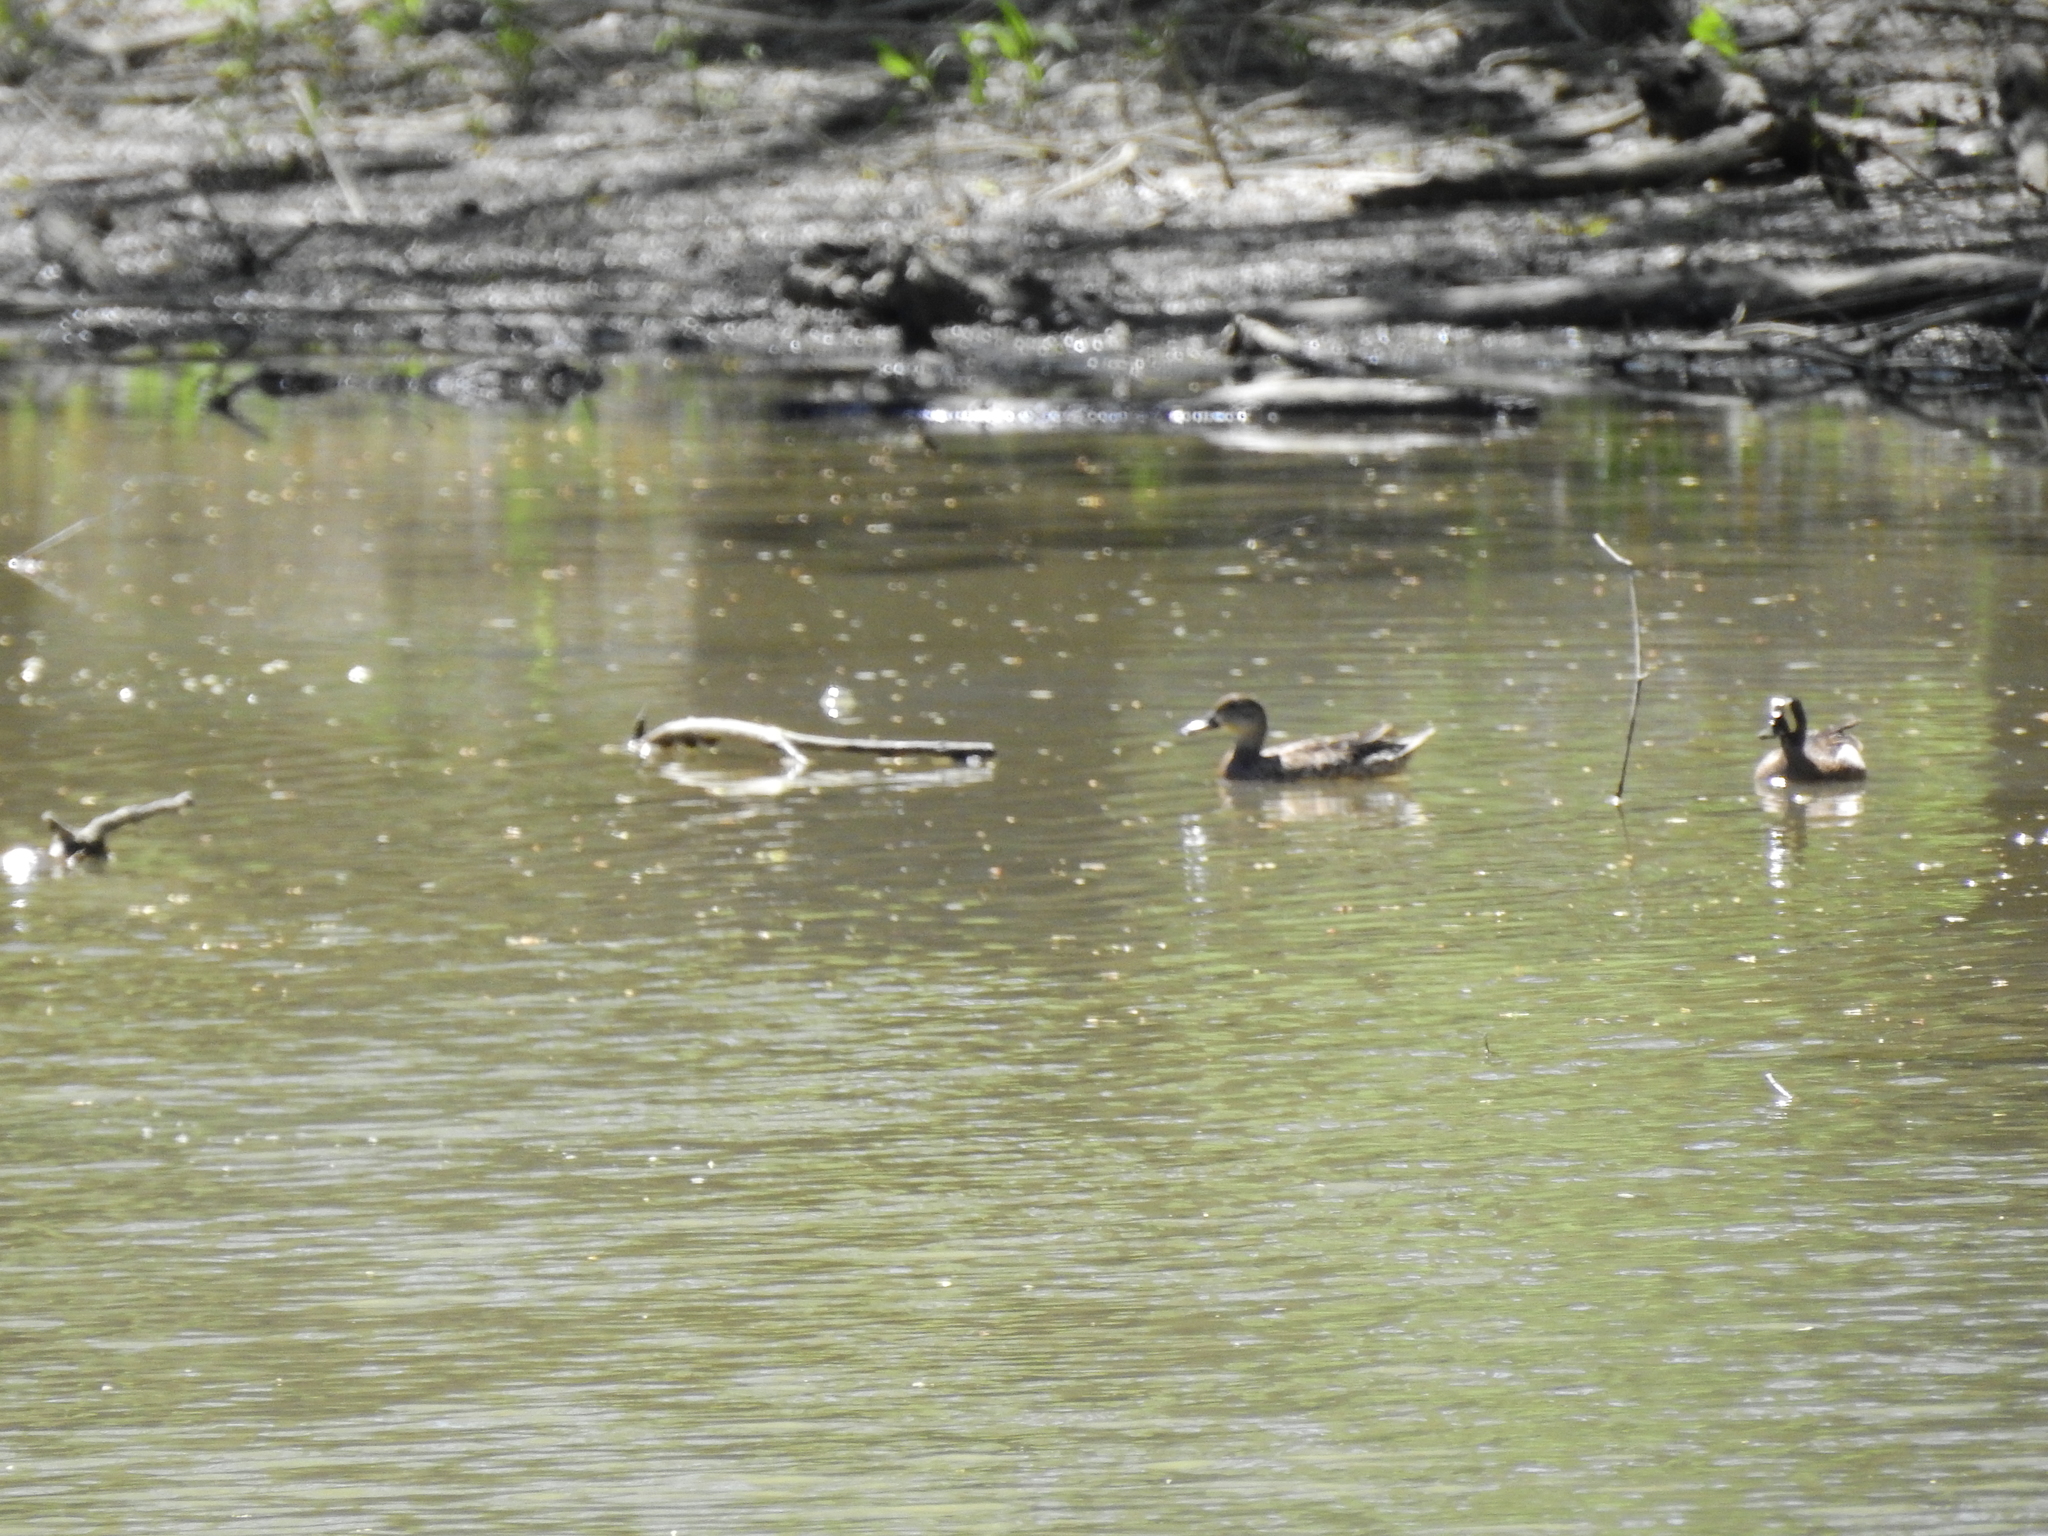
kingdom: Animalia
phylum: Chordata
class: Aves
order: Anseriformes
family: Anatidae
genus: Spatula
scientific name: Spatula discors
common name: Blue-winged teal
